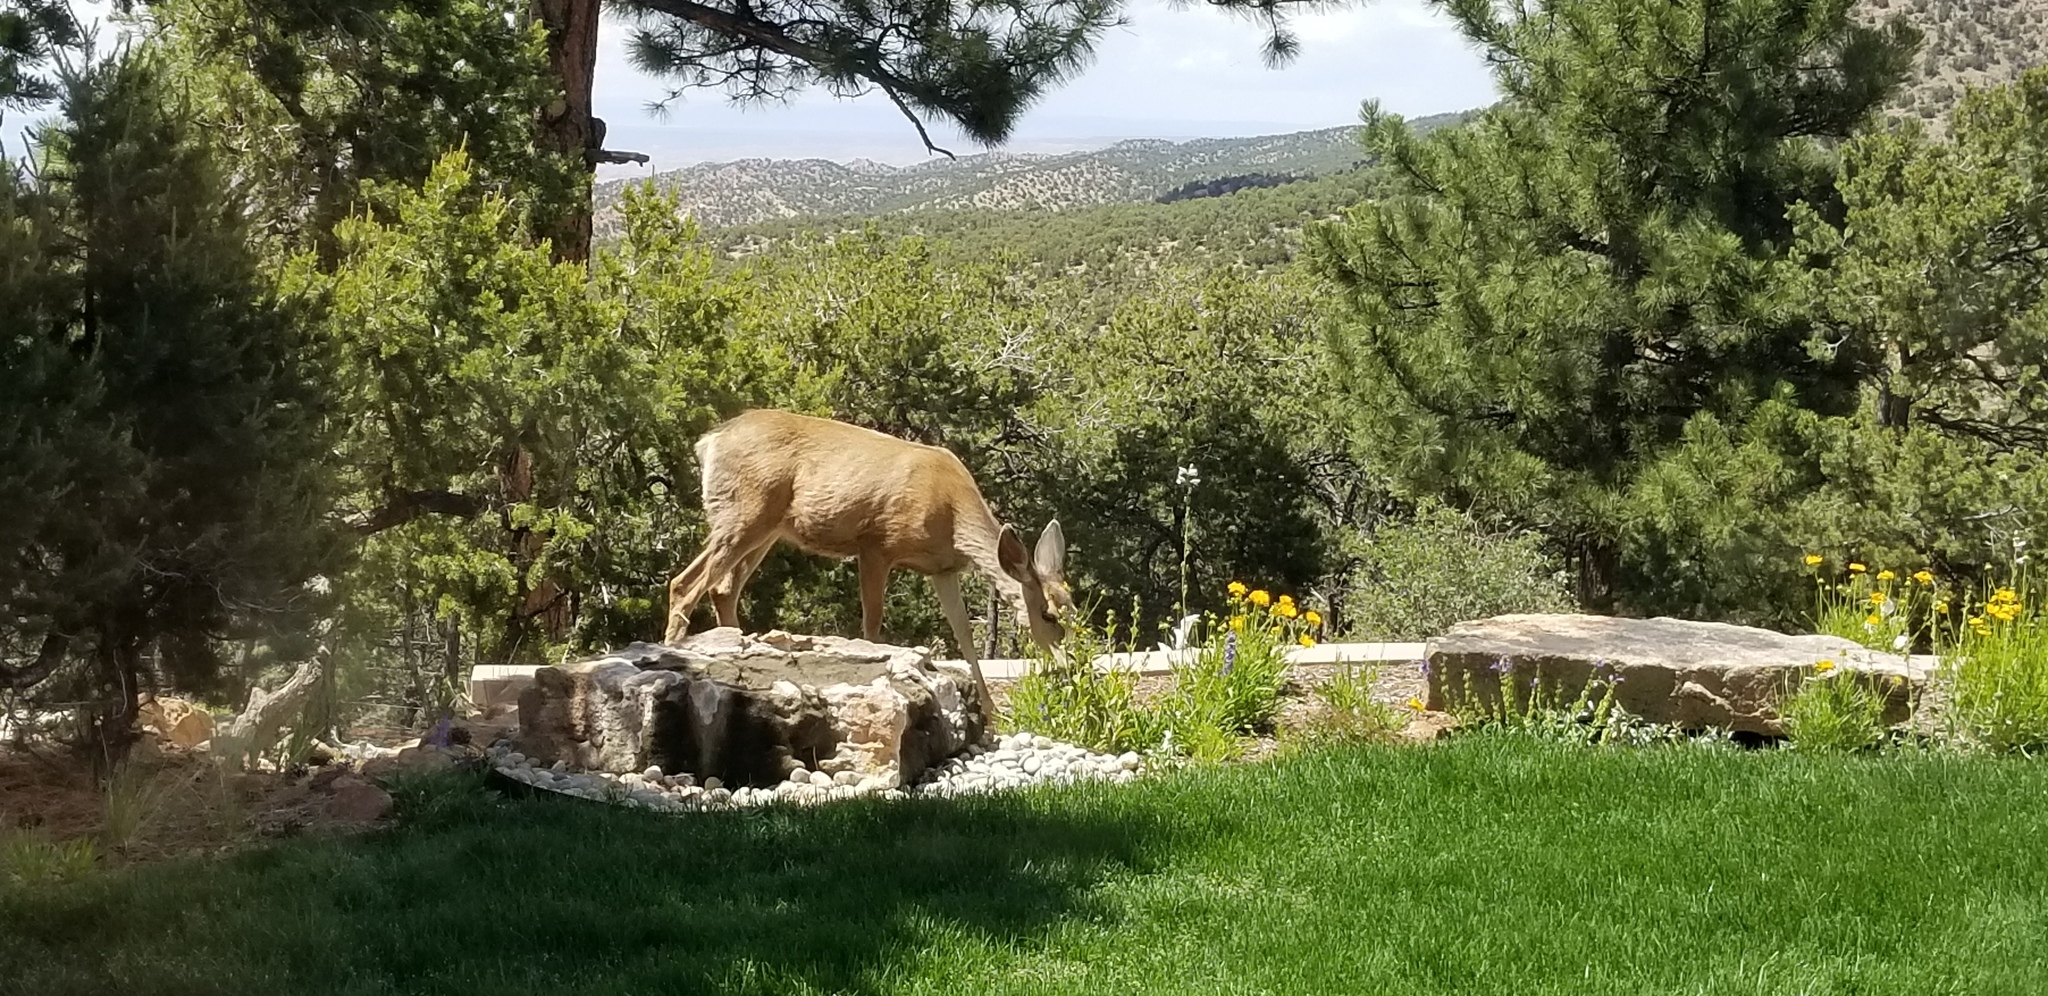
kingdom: Animalia
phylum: Chordata
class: Mammalia
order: Artiodactyla
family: Cervidae
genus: Odocoileus
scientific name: Odocoileus hemionus
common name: Mule deer
